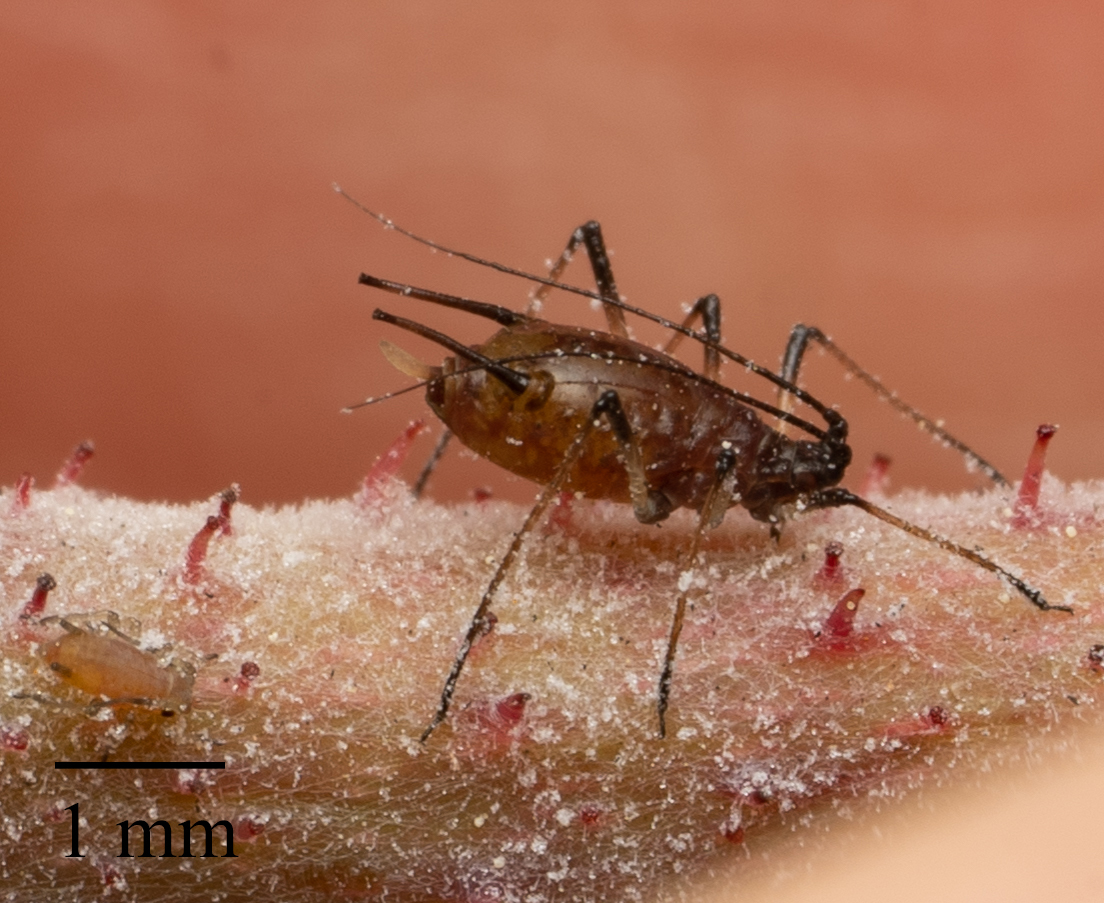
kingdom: Animalia
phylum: Arthropoda
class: Insecta
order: Hemiptera
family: Aphididae
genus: Macrosiphum
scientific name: Macrosiphum rosae
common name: Rose aphid
